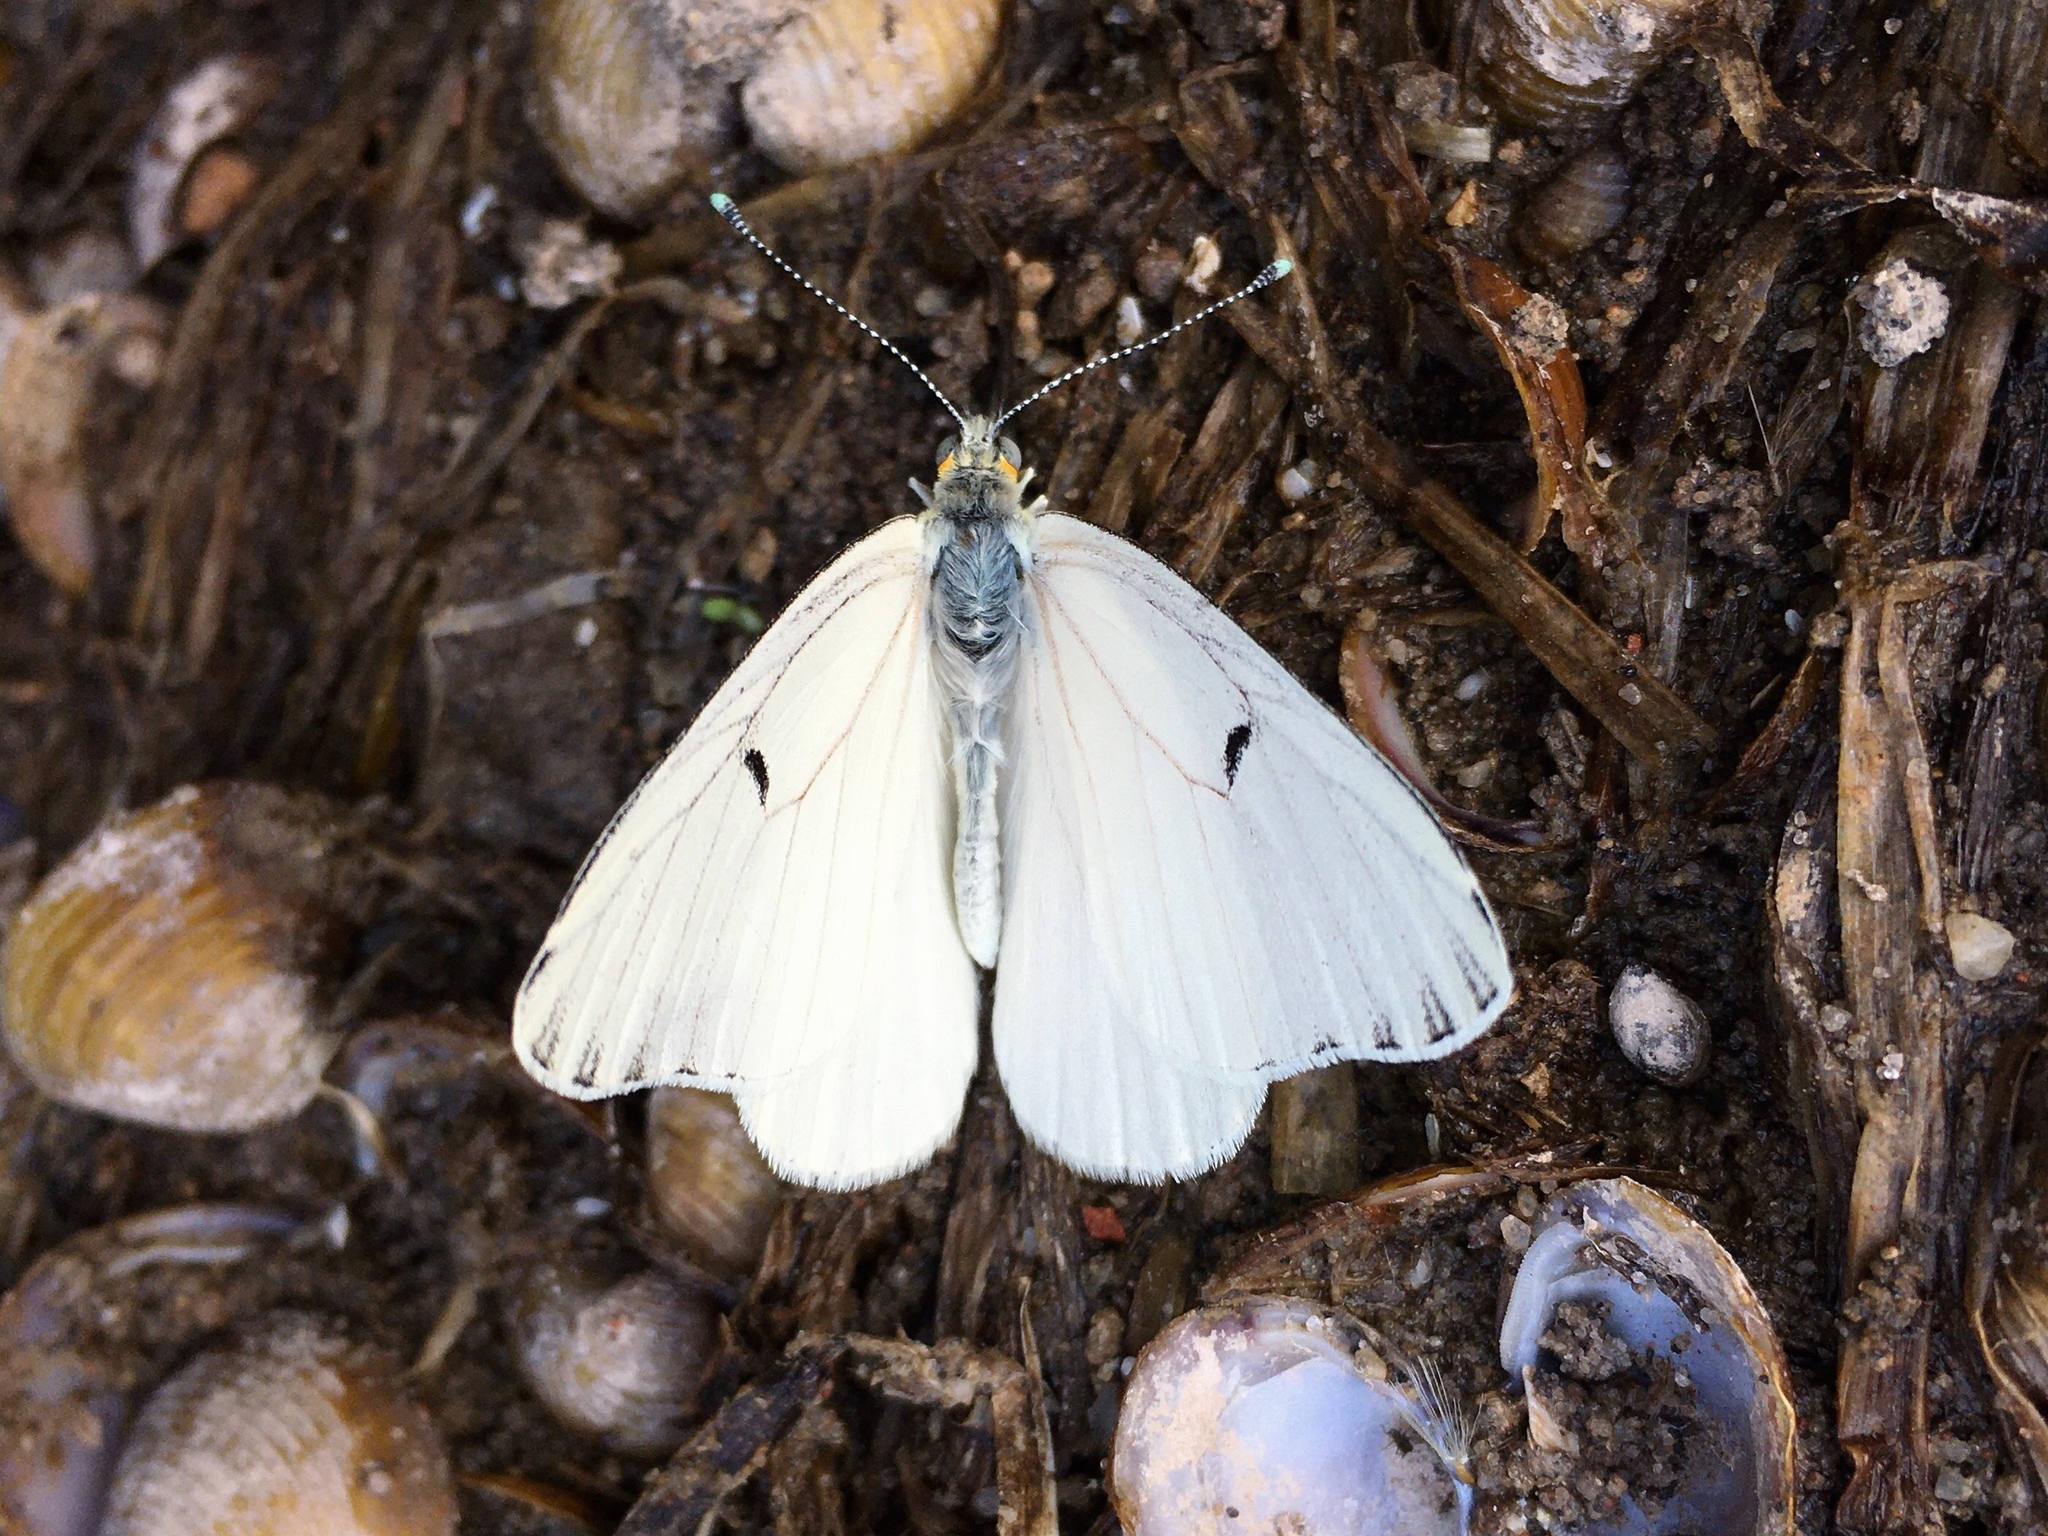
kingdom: Animalia
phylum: Arthropoda
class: Insecta
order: Lepidoptera
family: Pieridae
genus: Tatochila
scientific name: Tatochila mercedis
